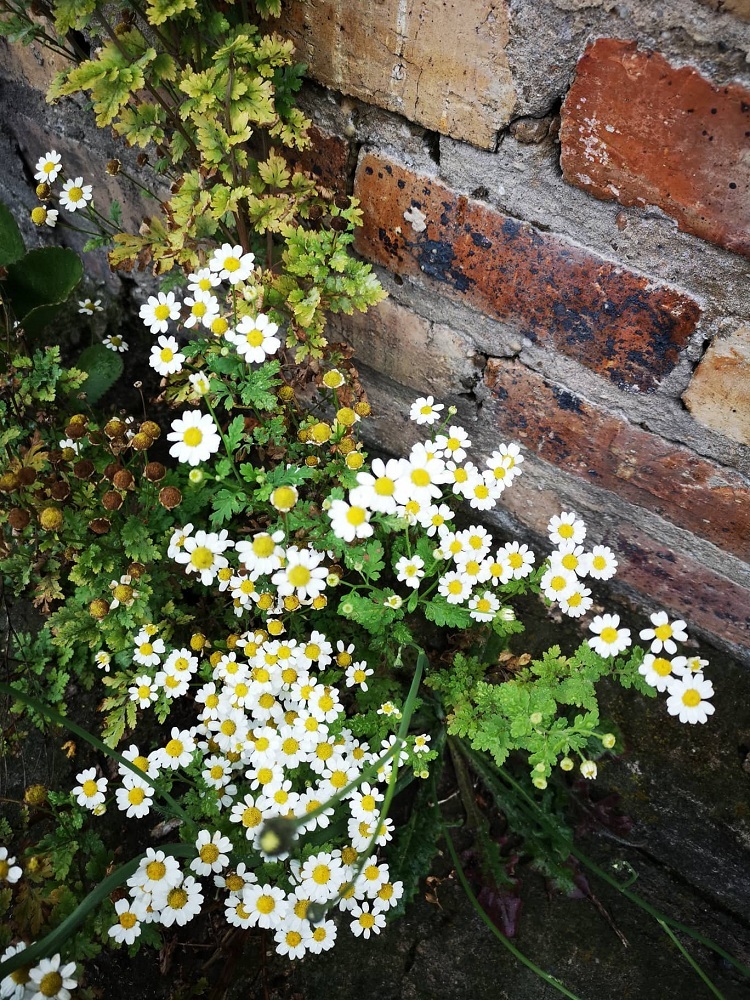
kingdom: Plantae
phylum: Tracheophyta
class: Magnoliopsida
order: Asterales
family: Asteraceae
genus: Tanacetum
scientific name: Tanacetum parthenium
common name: Feverfew
